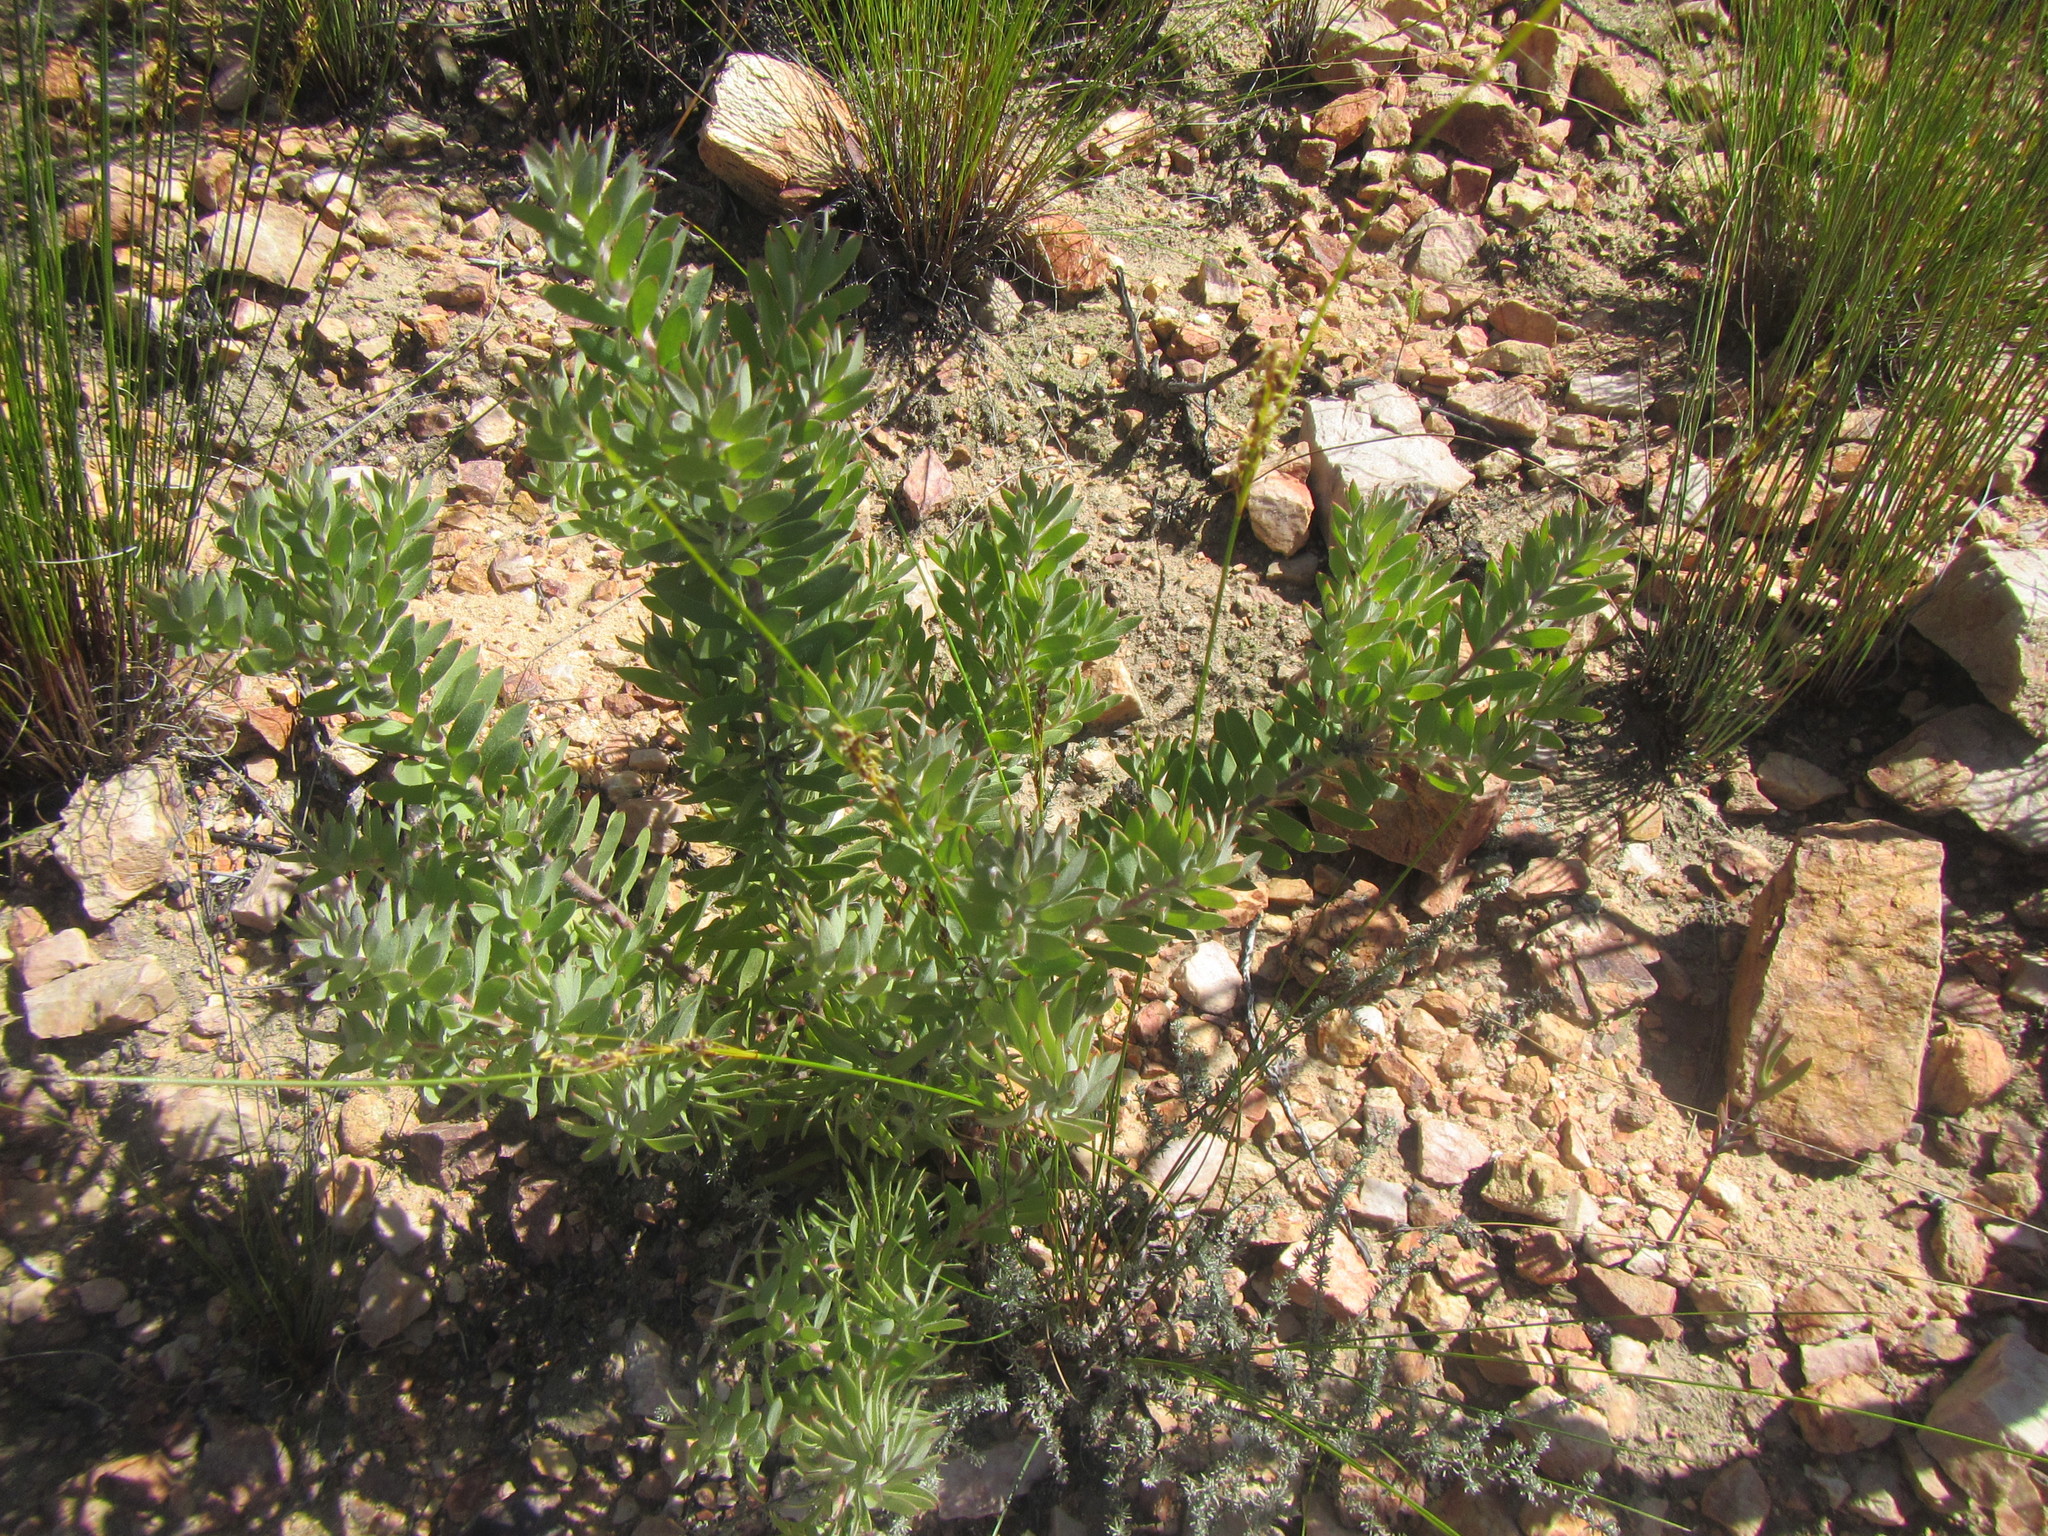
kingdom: Plantae
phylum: Tracheophyta
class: Magnoliopsida
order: Proteales
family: Proteaceae
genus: Leucospermum
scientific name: Leucospermum wittebergense
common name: Swartberg pincushion
